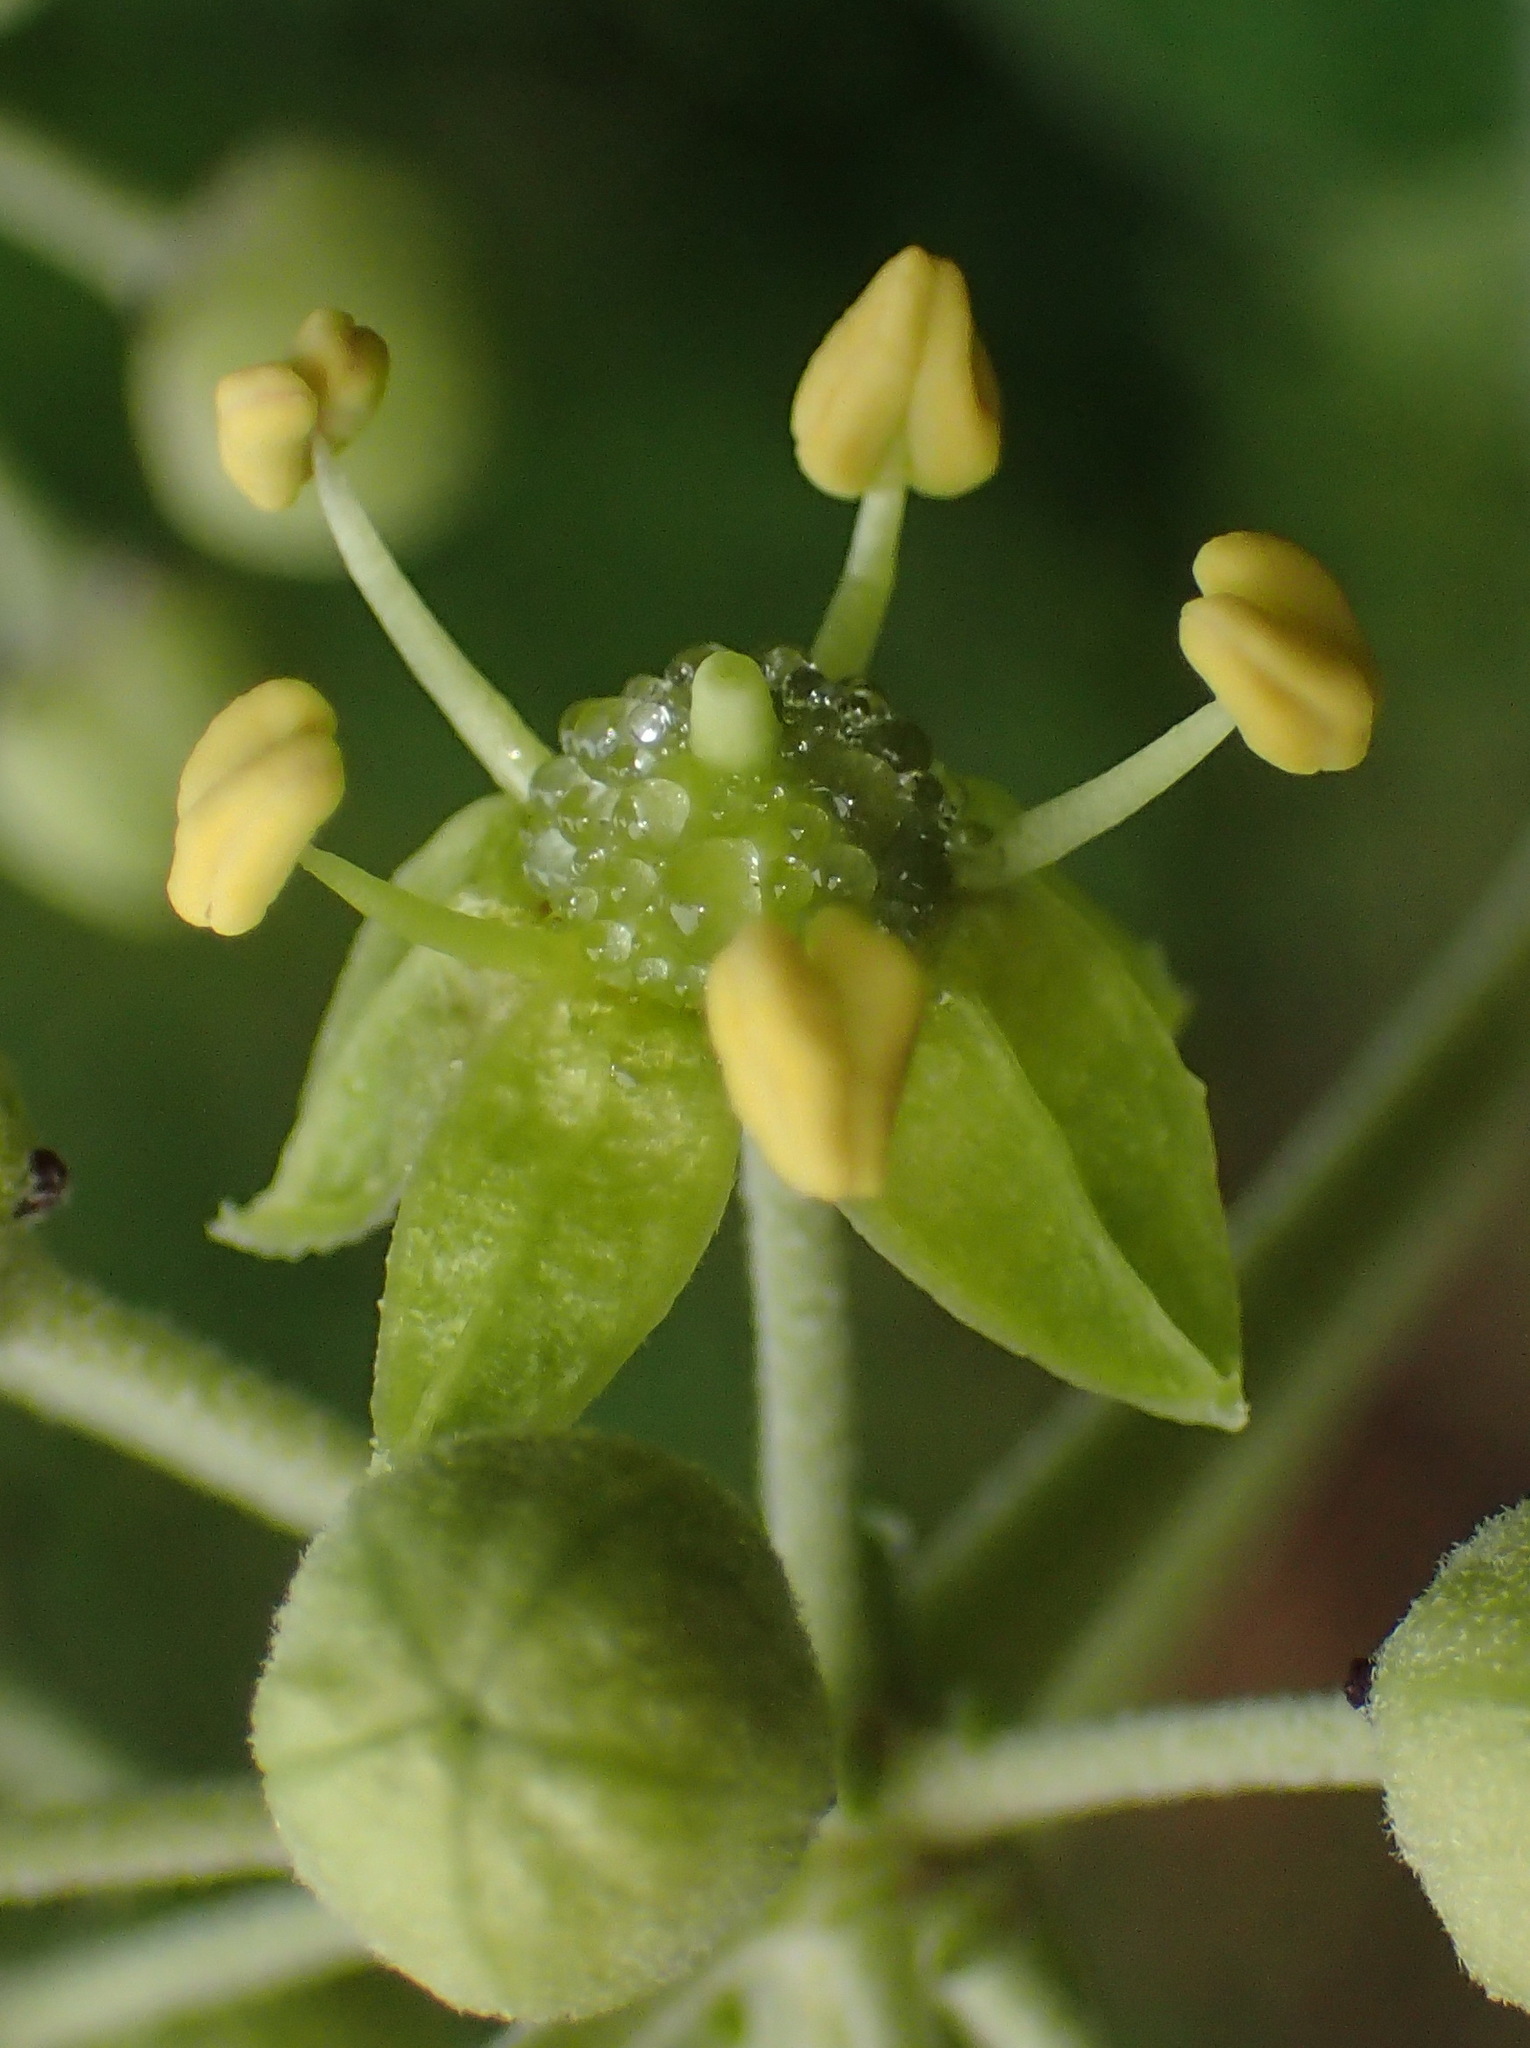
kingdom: Plantae
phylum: Tracheophyta
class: Magnoliopsida
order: Apiales
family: Araliaceae
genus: Hedera
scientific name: Hedera canariensis
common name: Madeira ivy
